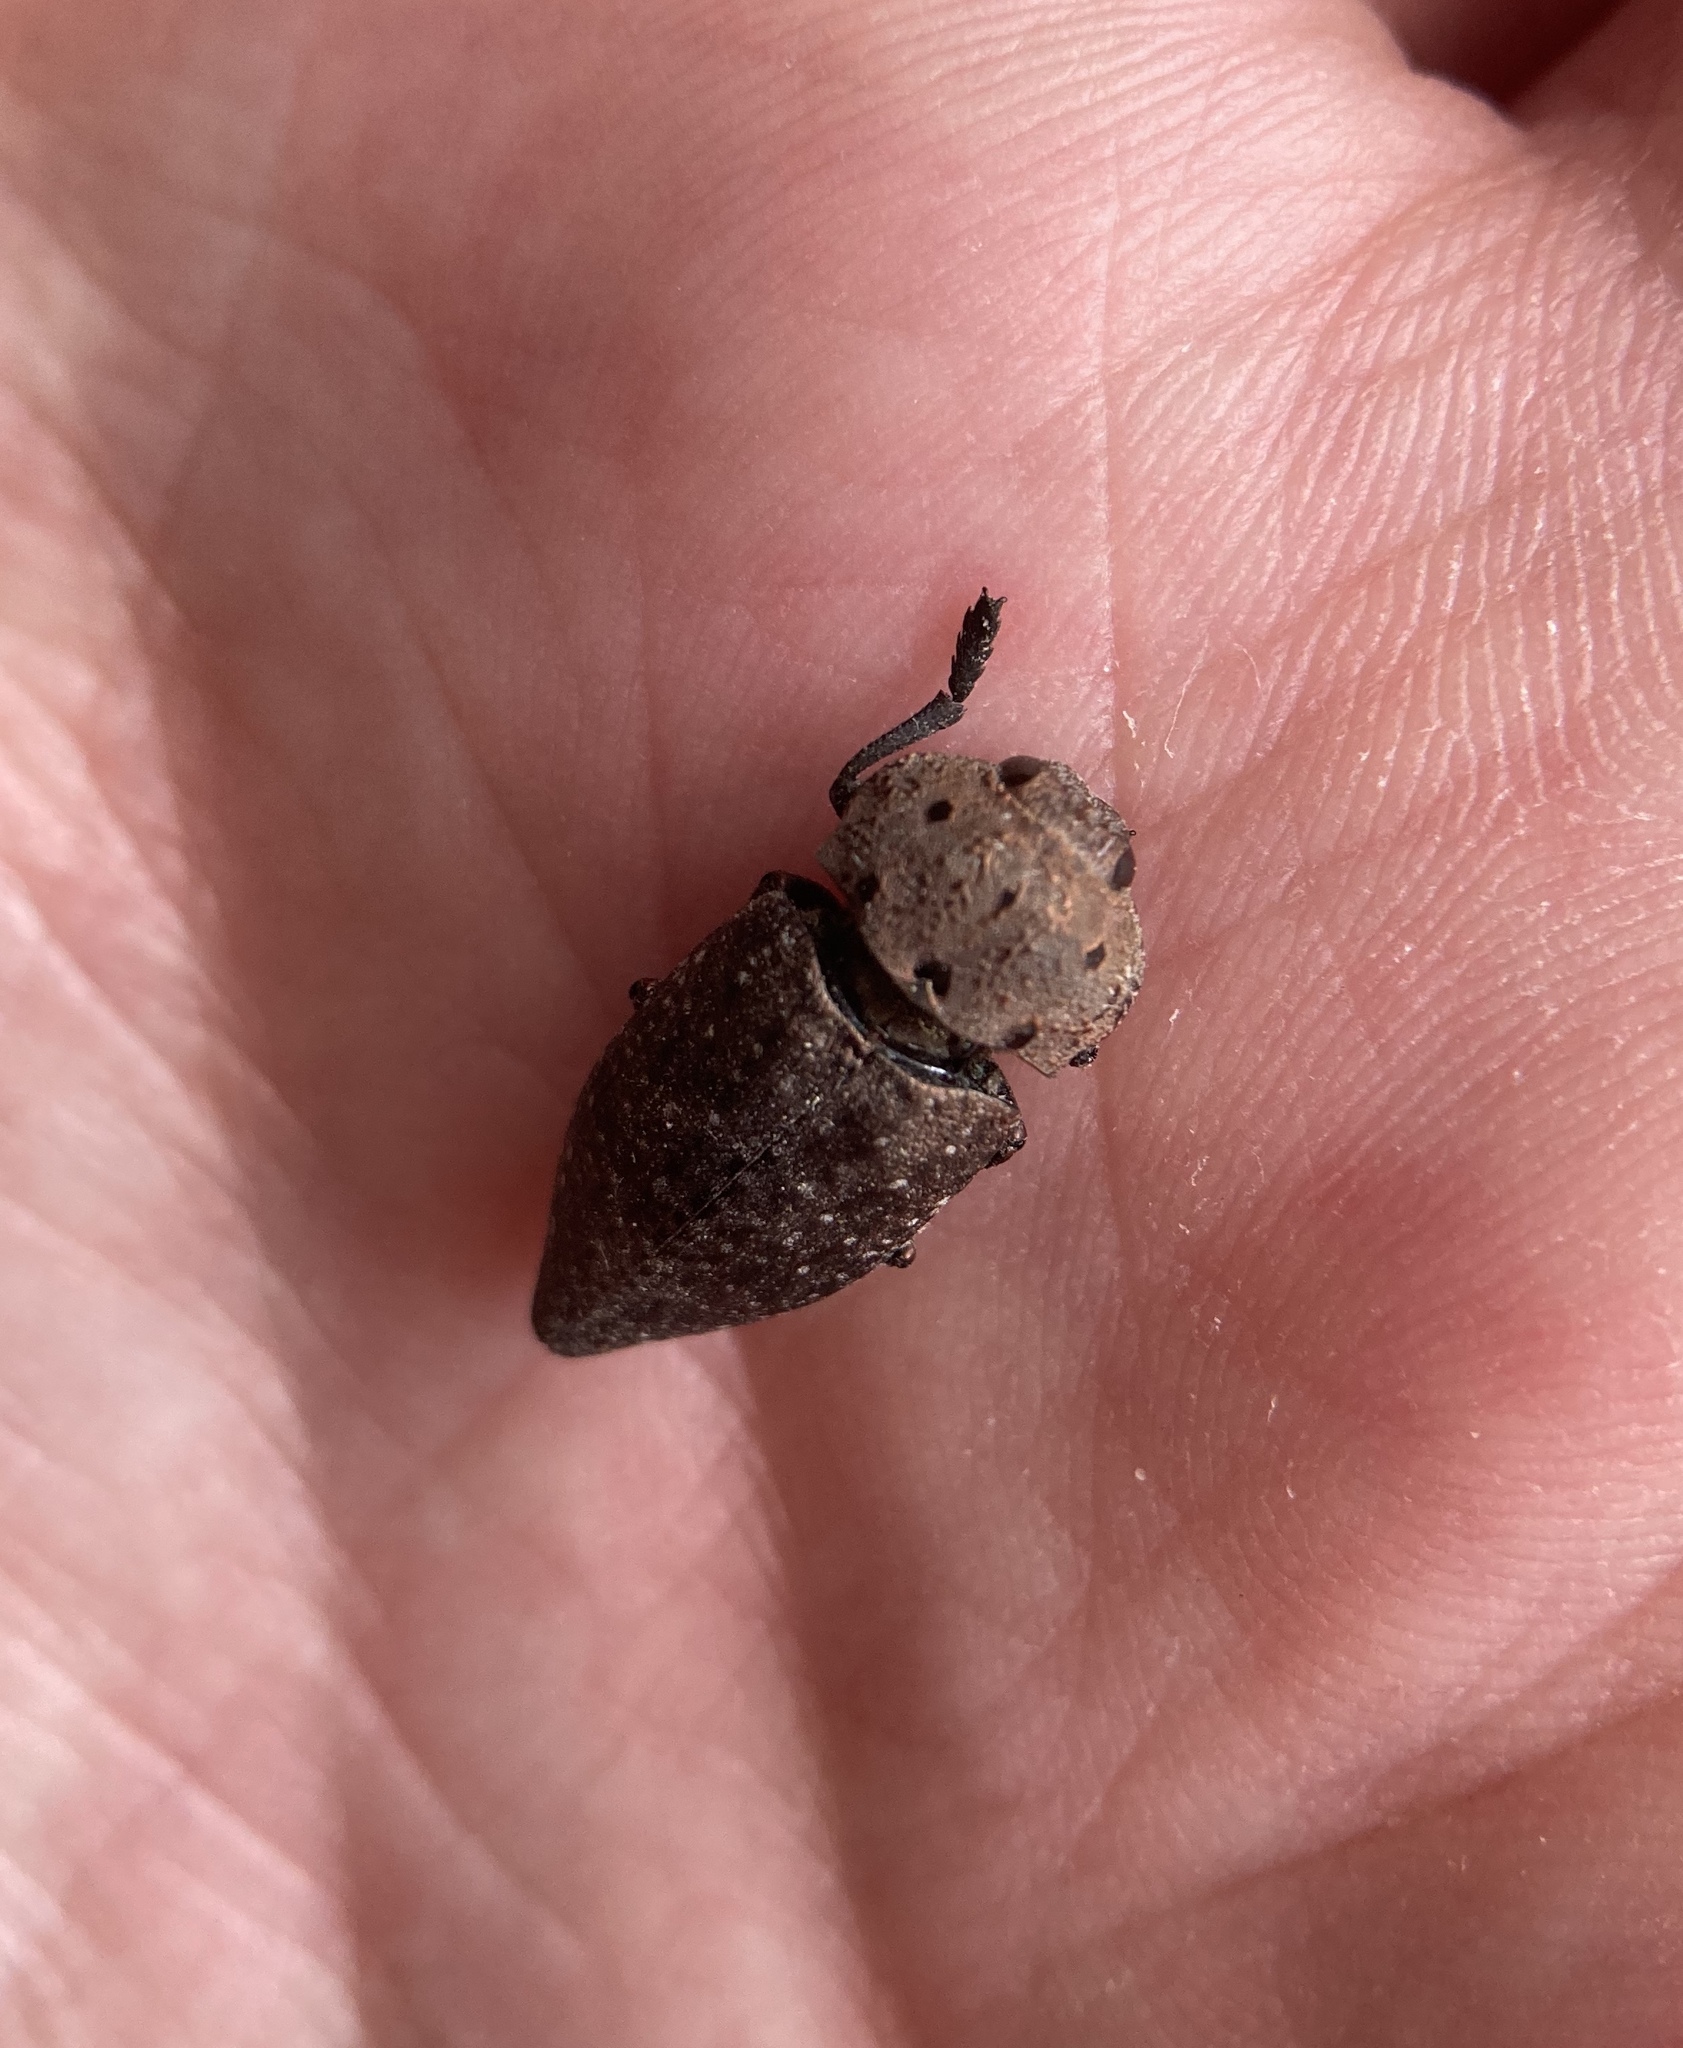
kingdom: Animalia
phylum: Arthropoda
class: Insecta
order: Coleoptera
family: Buprestidae
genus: Capnodis
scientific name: Capnodis tenebricosa
